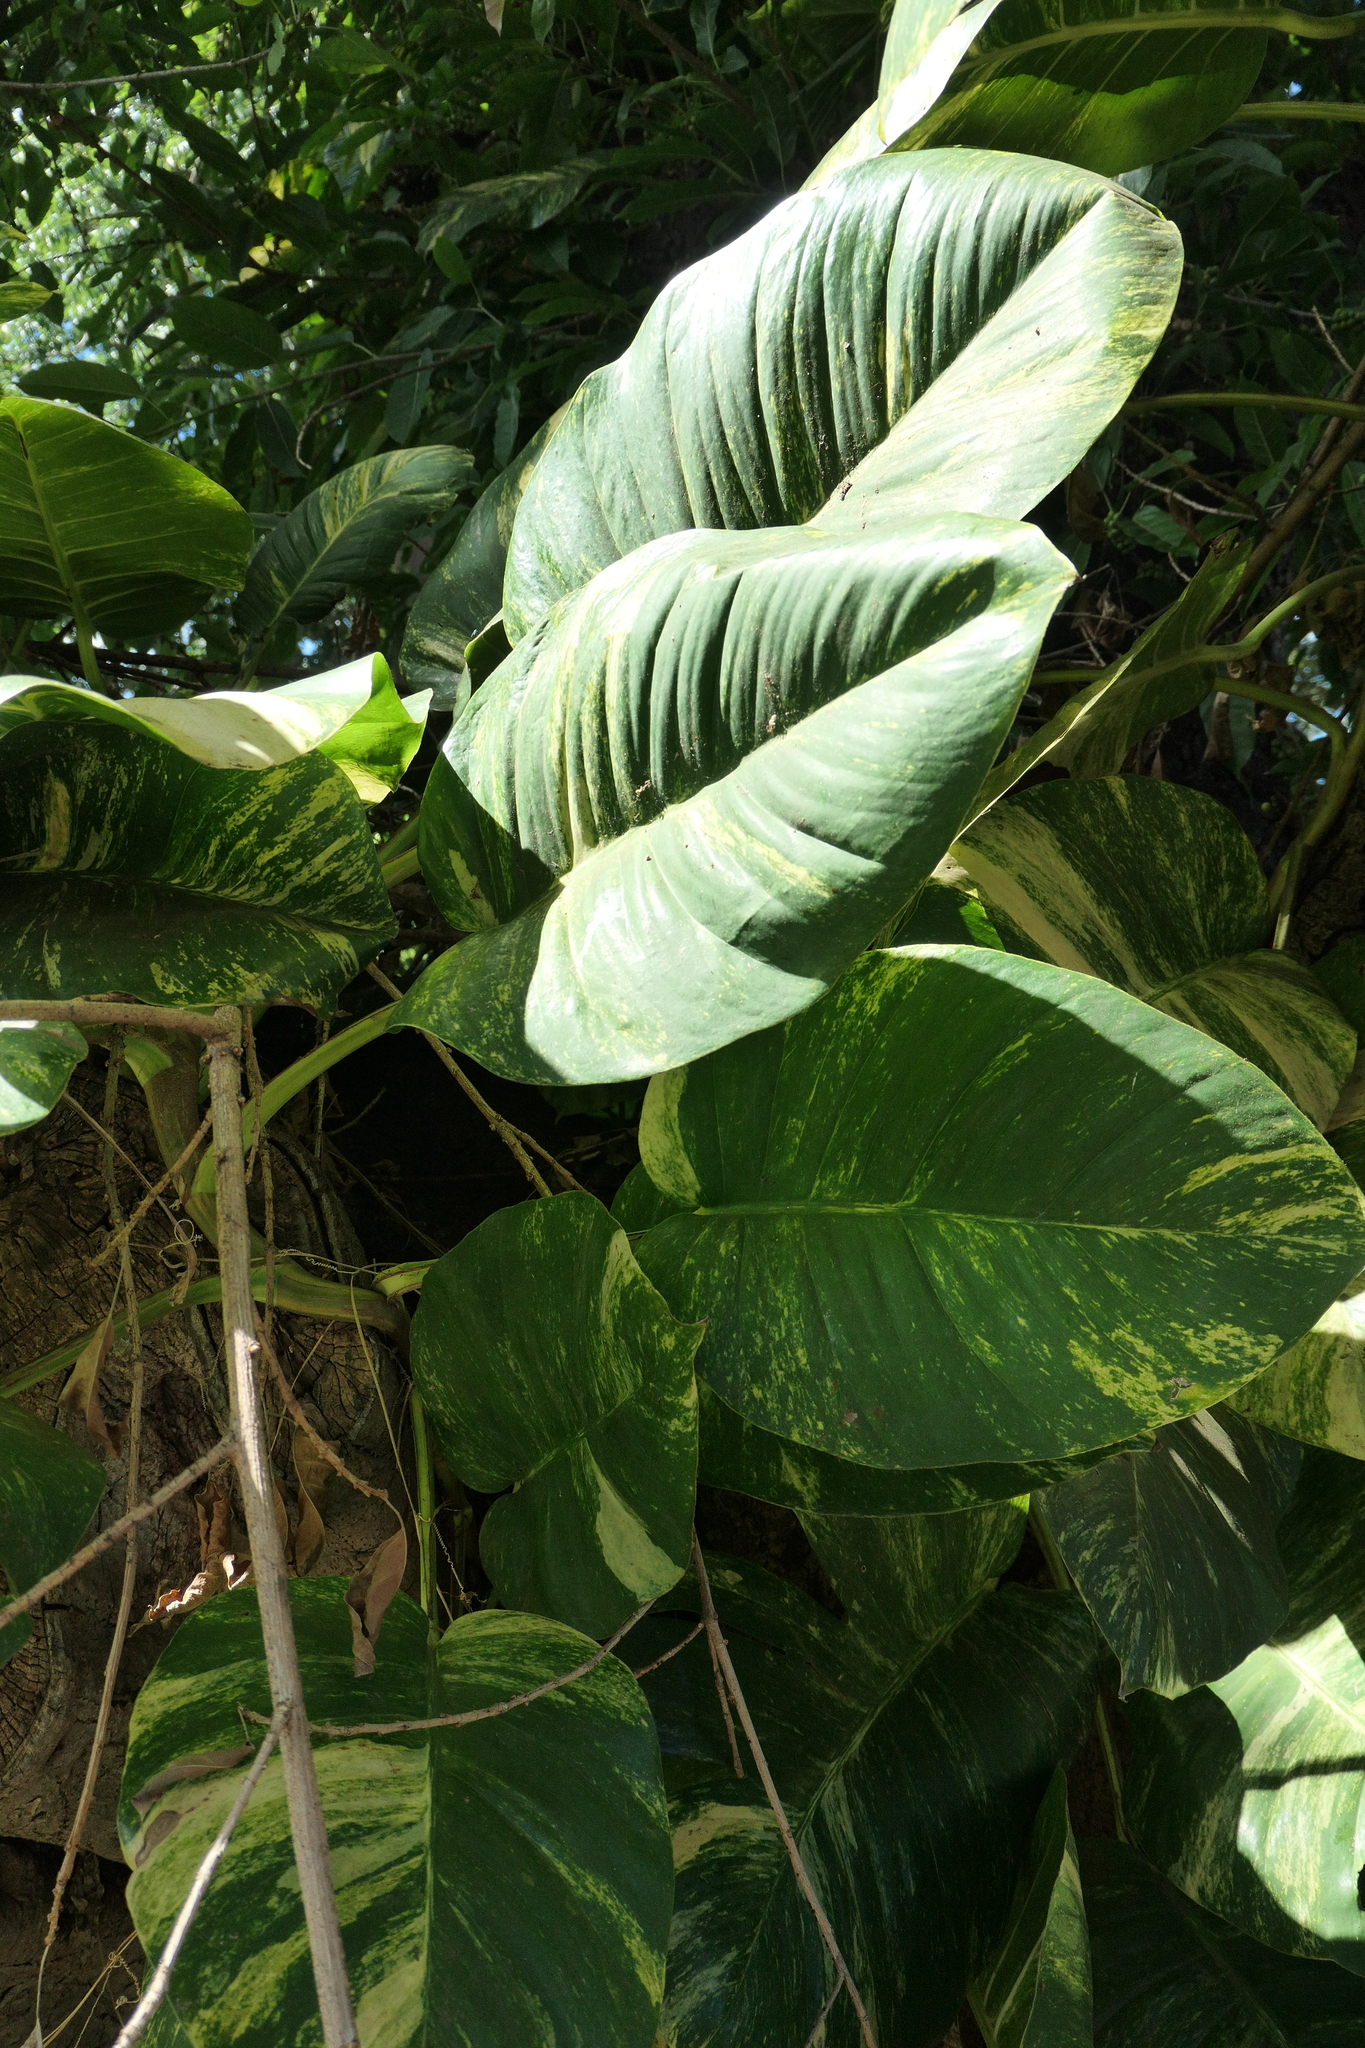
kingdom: Plantae
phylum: Tracheophyta
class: Liliopsida
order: Alismatales
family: Araceae
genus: Epipremnum
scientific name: Epipremnum aureum
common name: Golden hunter's-robe
